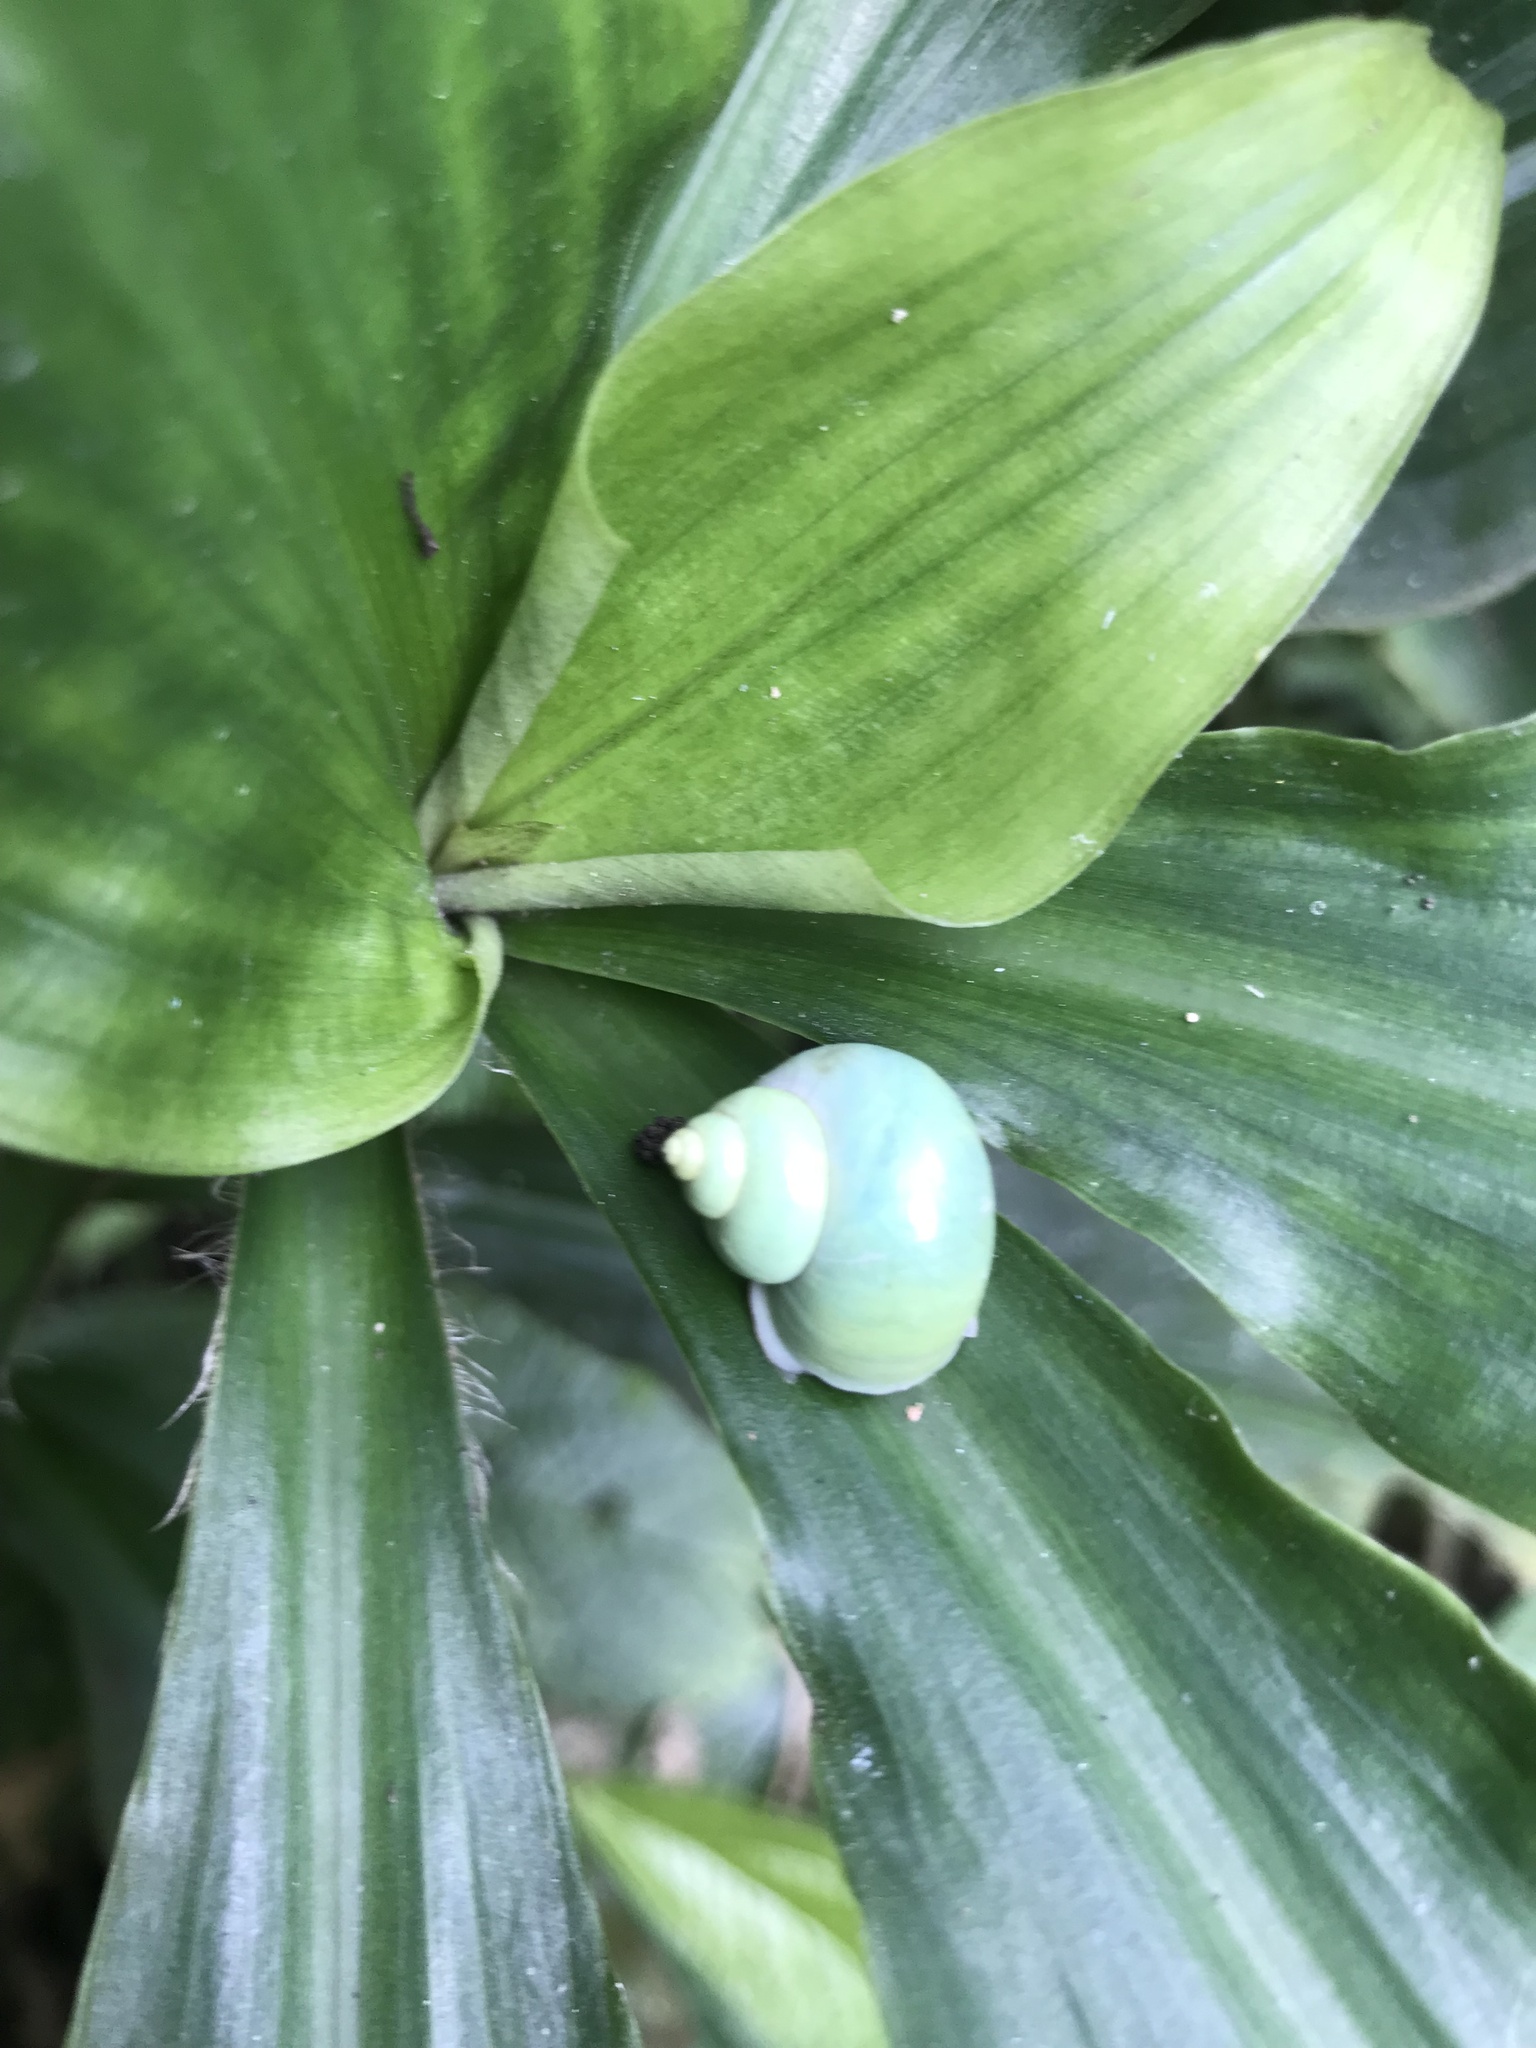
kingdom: Animalia
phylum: Mollusca
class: Gastropoda
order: Architaenioglossa
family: Cyclophoridae
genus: Leptopoma
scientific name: Leptopoma nitidum
